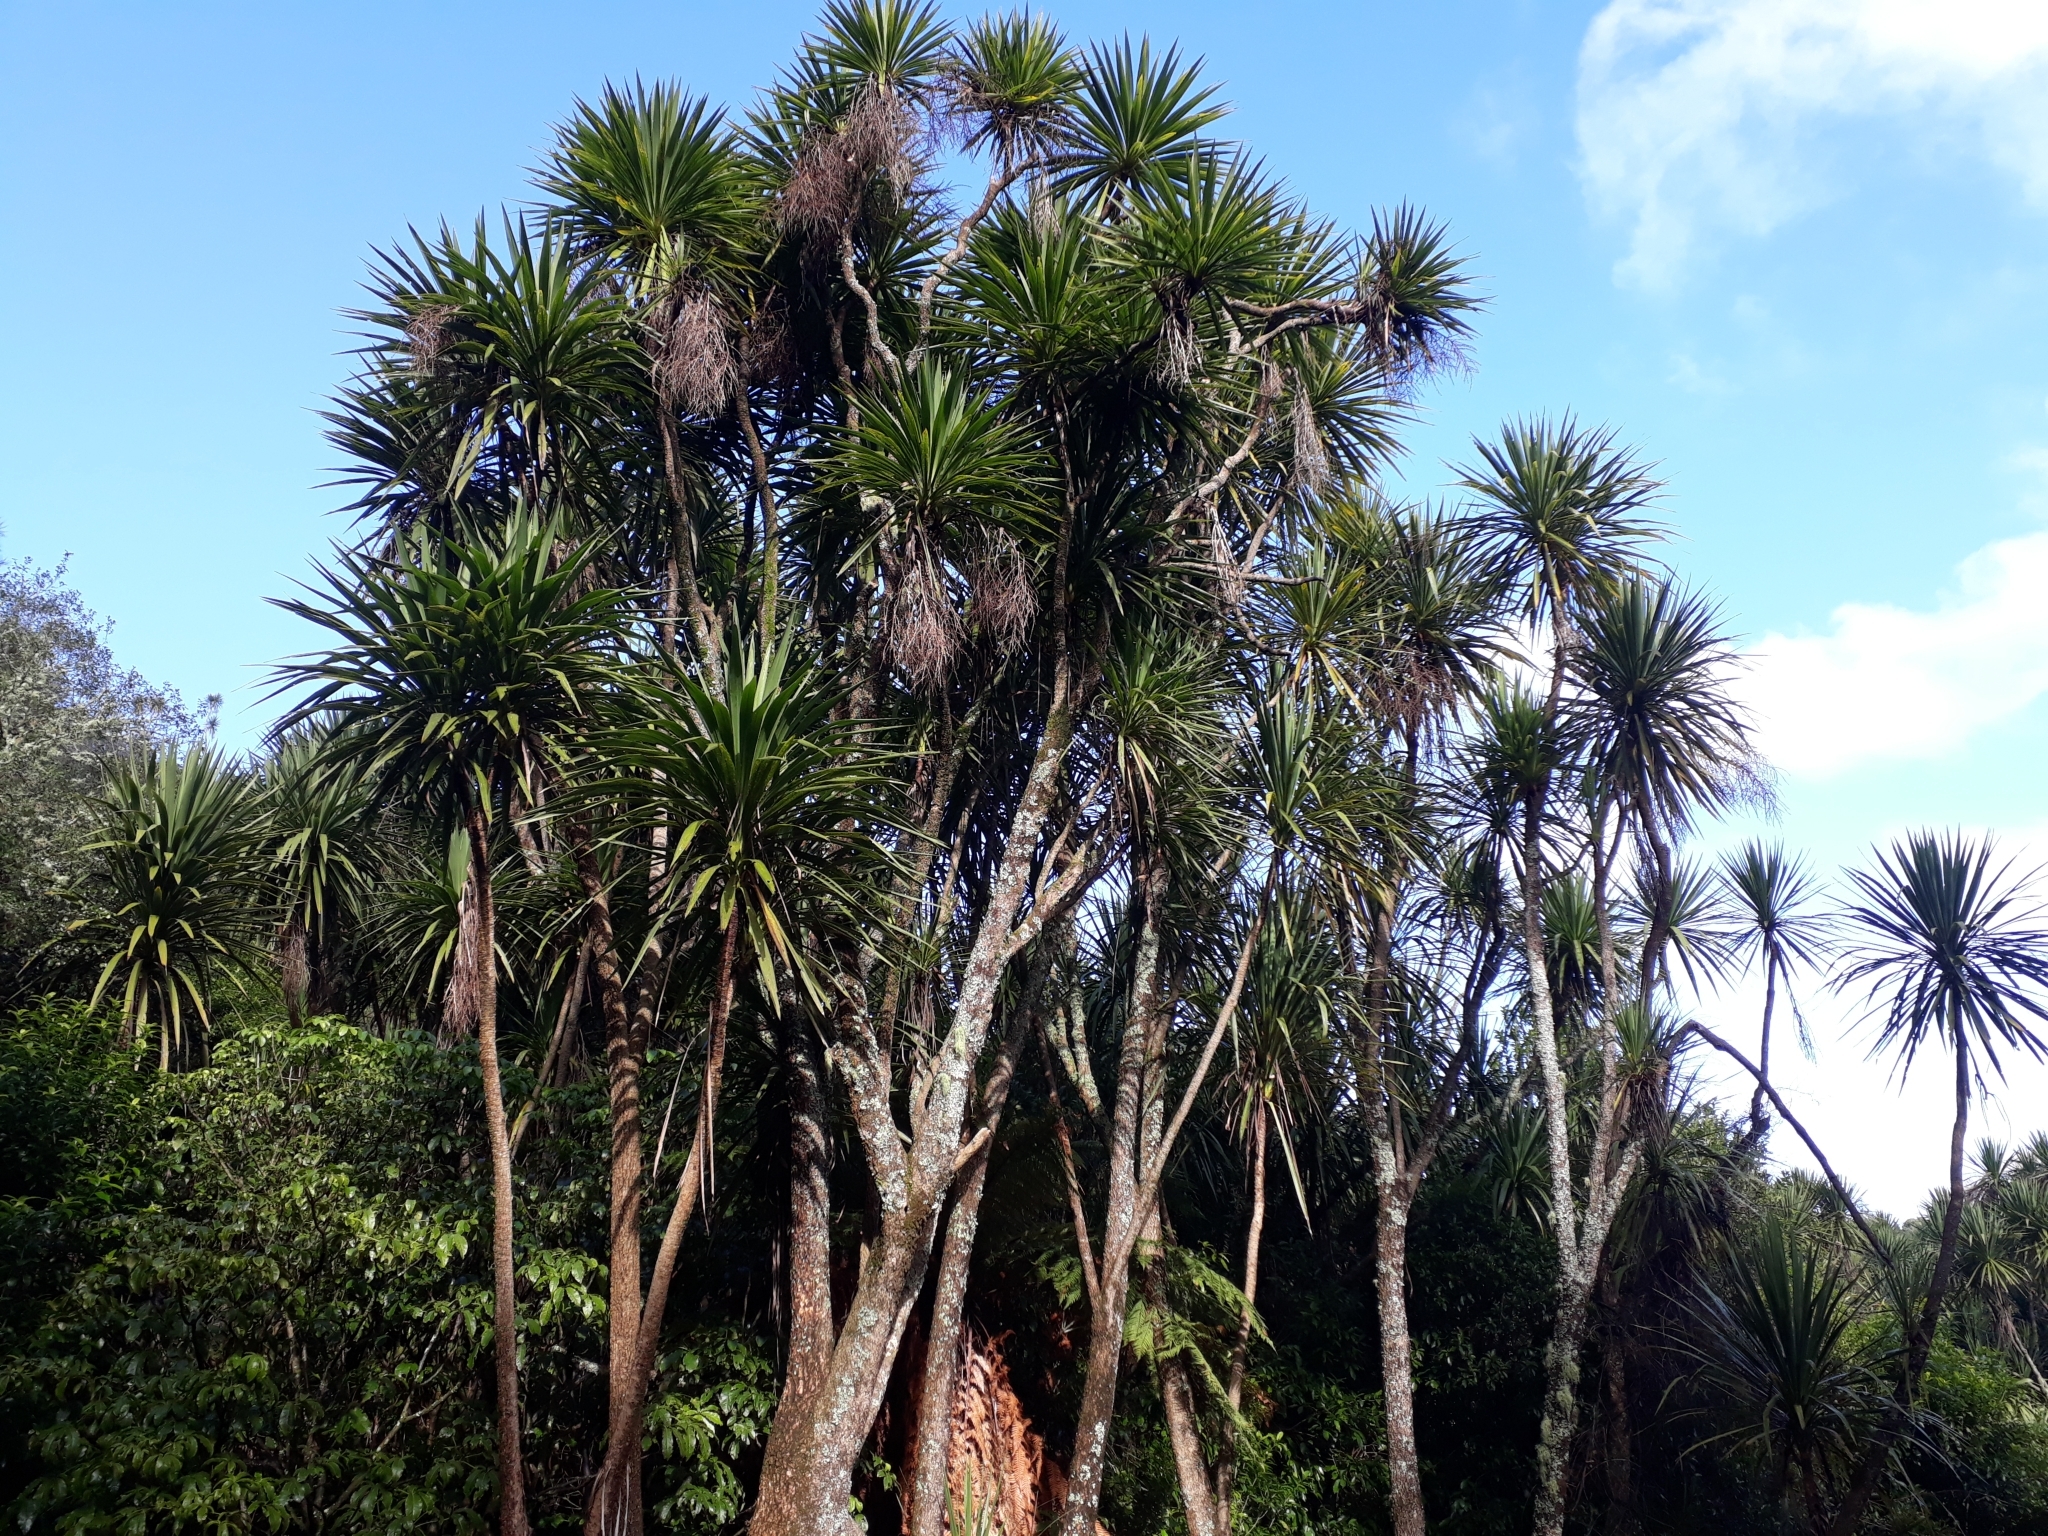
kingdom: Plantae
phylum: Tracheophyta
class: Liliopsida
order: Asparagales
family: Asparagaceae
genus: Cordyline
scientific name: Cordyline australis
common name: Cabbage-palm
